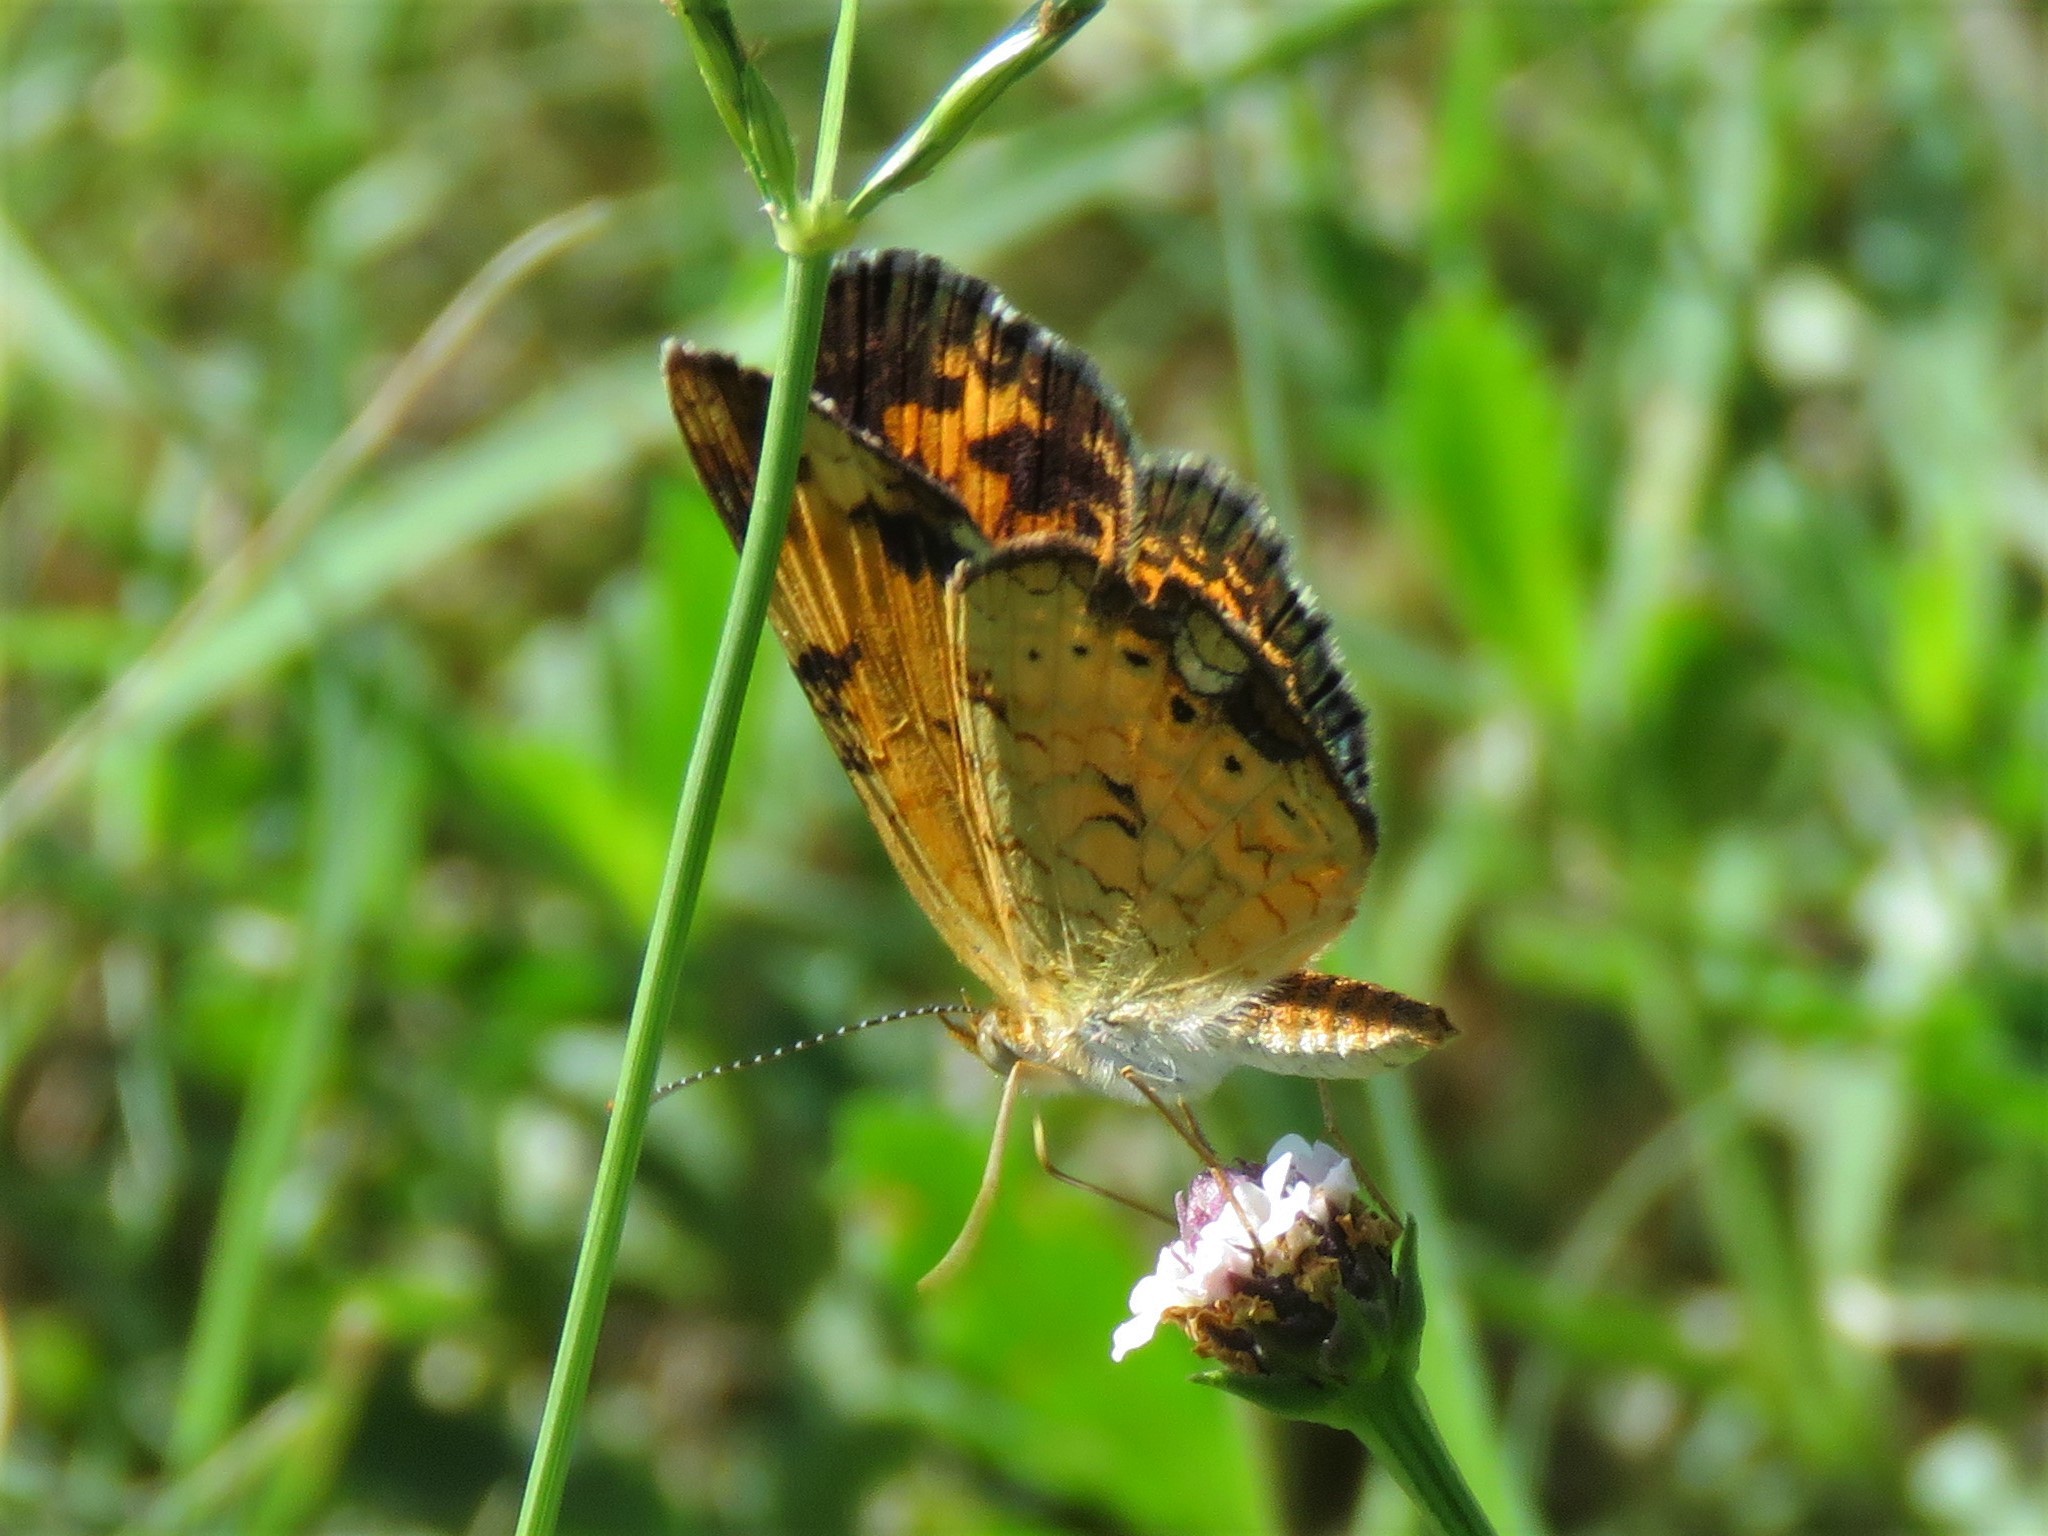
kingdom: Animalia
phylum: Arthropoda
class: Insecta
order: Lepidoptera
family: Nymphalidae
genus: Phyciodes
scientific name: Phyciodes tharos
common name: Pearl crescent
